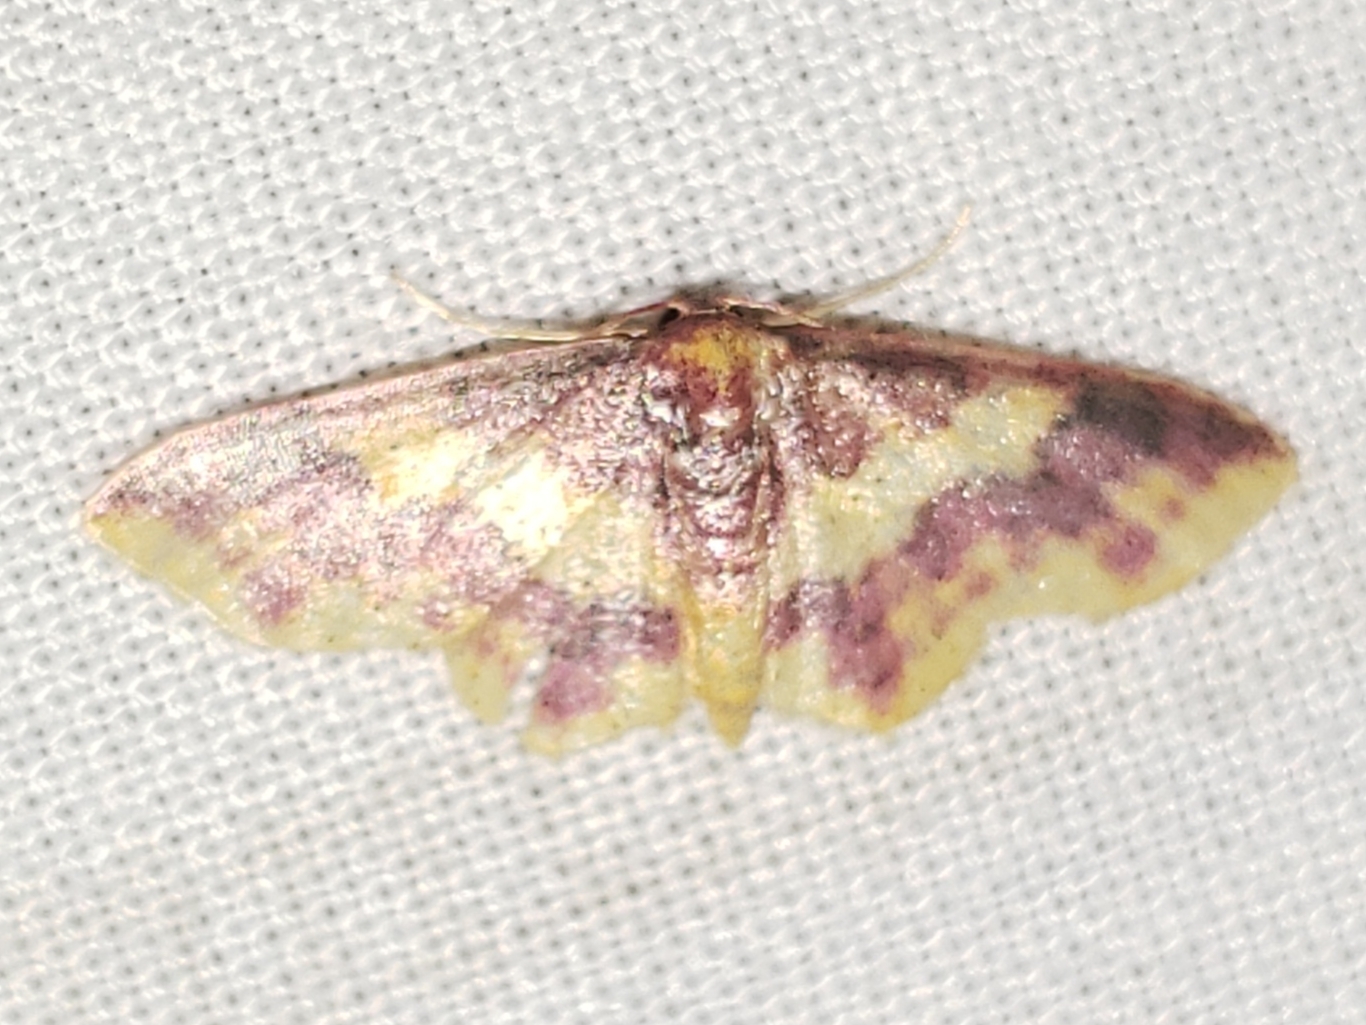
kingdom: Animalia
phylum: Arthropoda
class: Insecta
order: Lepidoptera
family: Geometridae
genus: Lophosis
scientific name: Lophosis labeculata
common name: Stained lophosis moth
